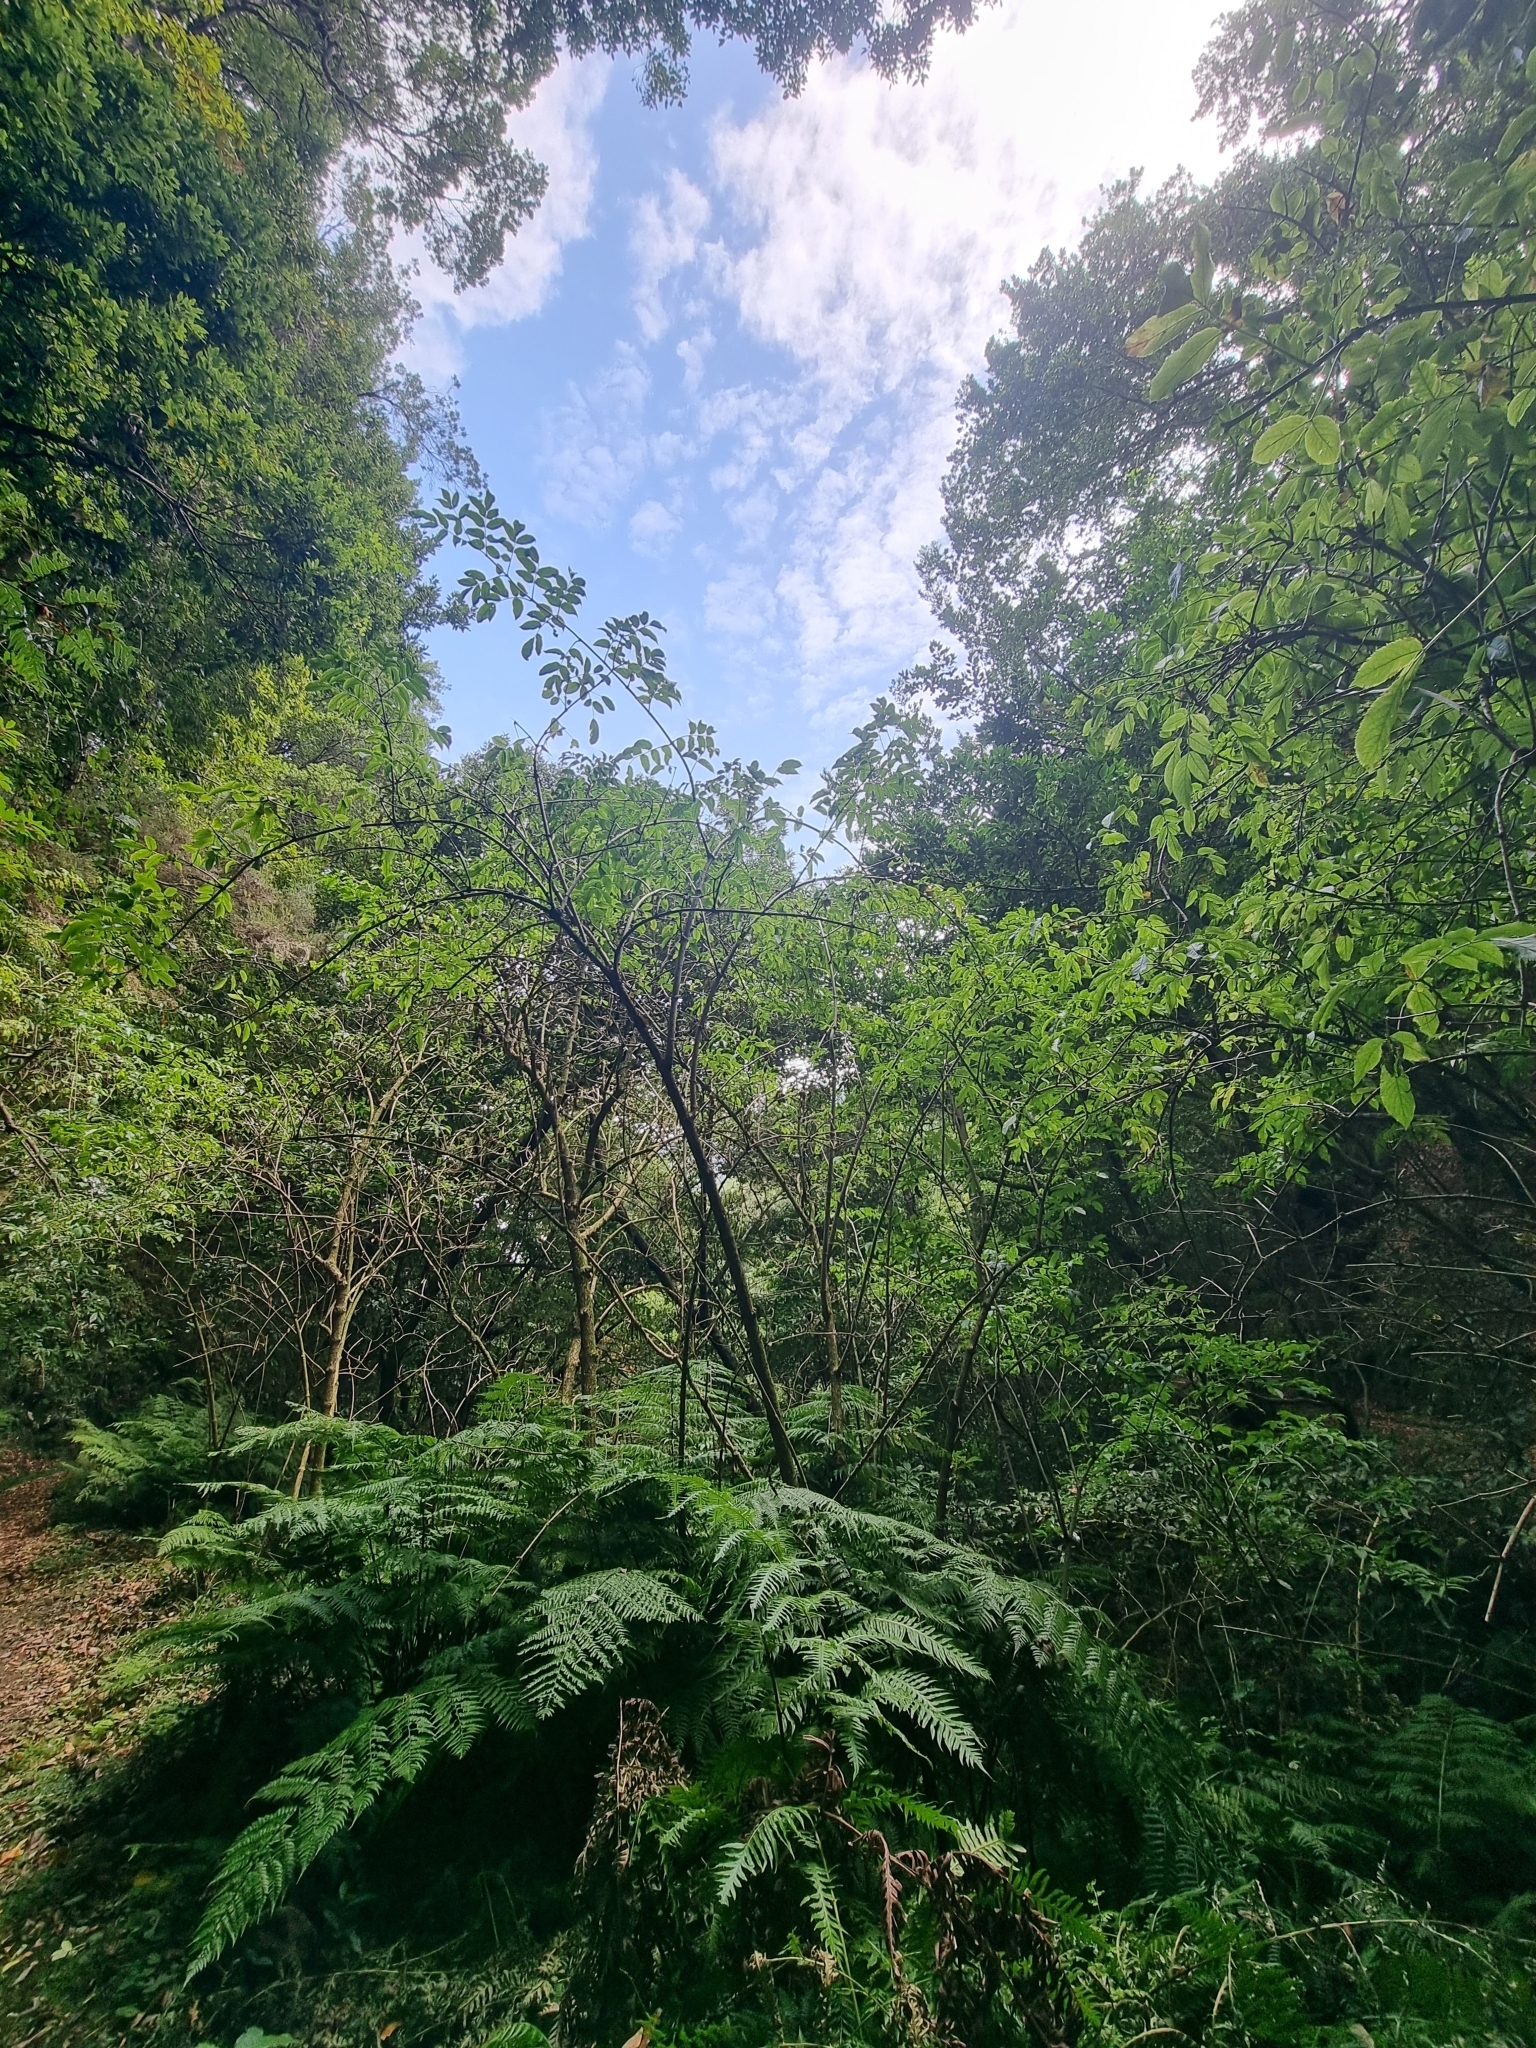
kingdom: Plantae
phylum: Tracheophyta
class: Magnoliopsida
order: Dipsacales
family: Viburnaceae
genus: Sambucus
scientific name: Sambucus lanceolata
